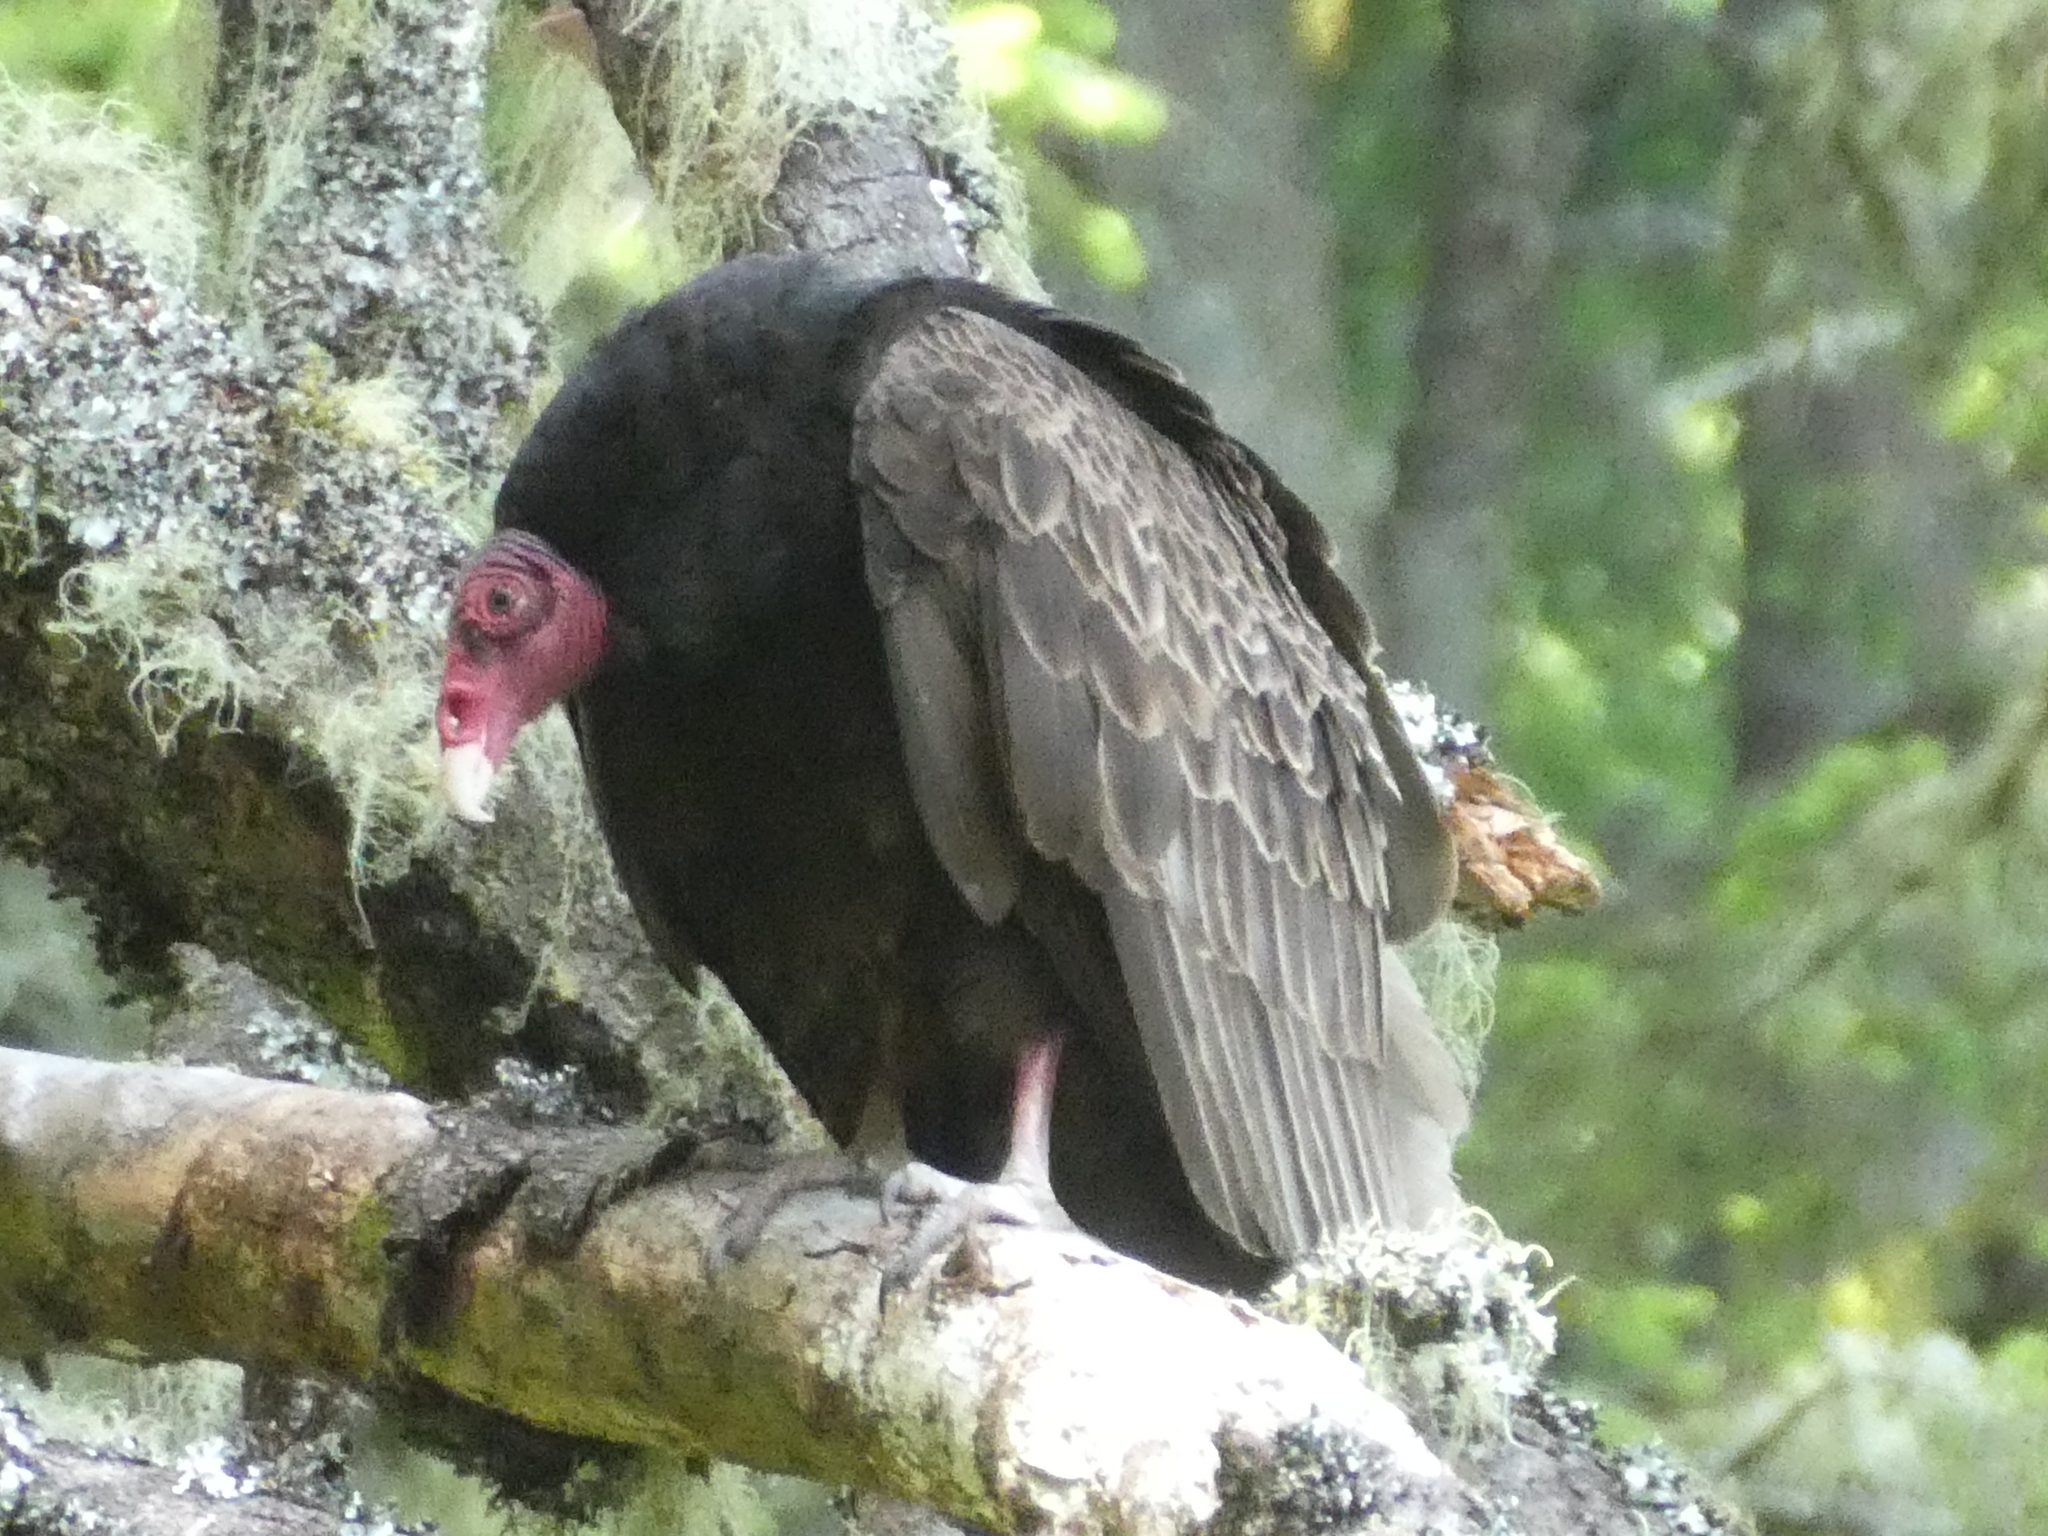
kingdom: Animalia
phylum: Chordata
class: Aves
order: Accipitriformes
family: Cathartidae
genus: Cathartes
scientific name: Cathartes aura
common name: Turkey vulture
